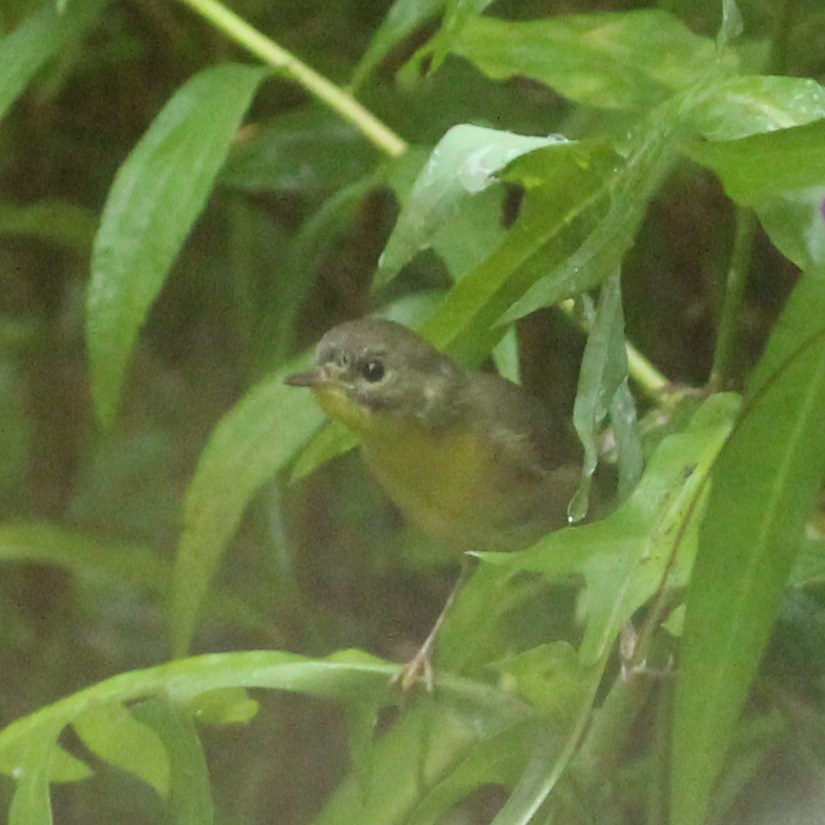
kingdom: Animalia
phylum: Chordata
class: Aves
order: Passeriformes
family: Parulidae
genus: Geothlypis
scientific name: Geothlypis trichas
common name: Common yellowthroat
